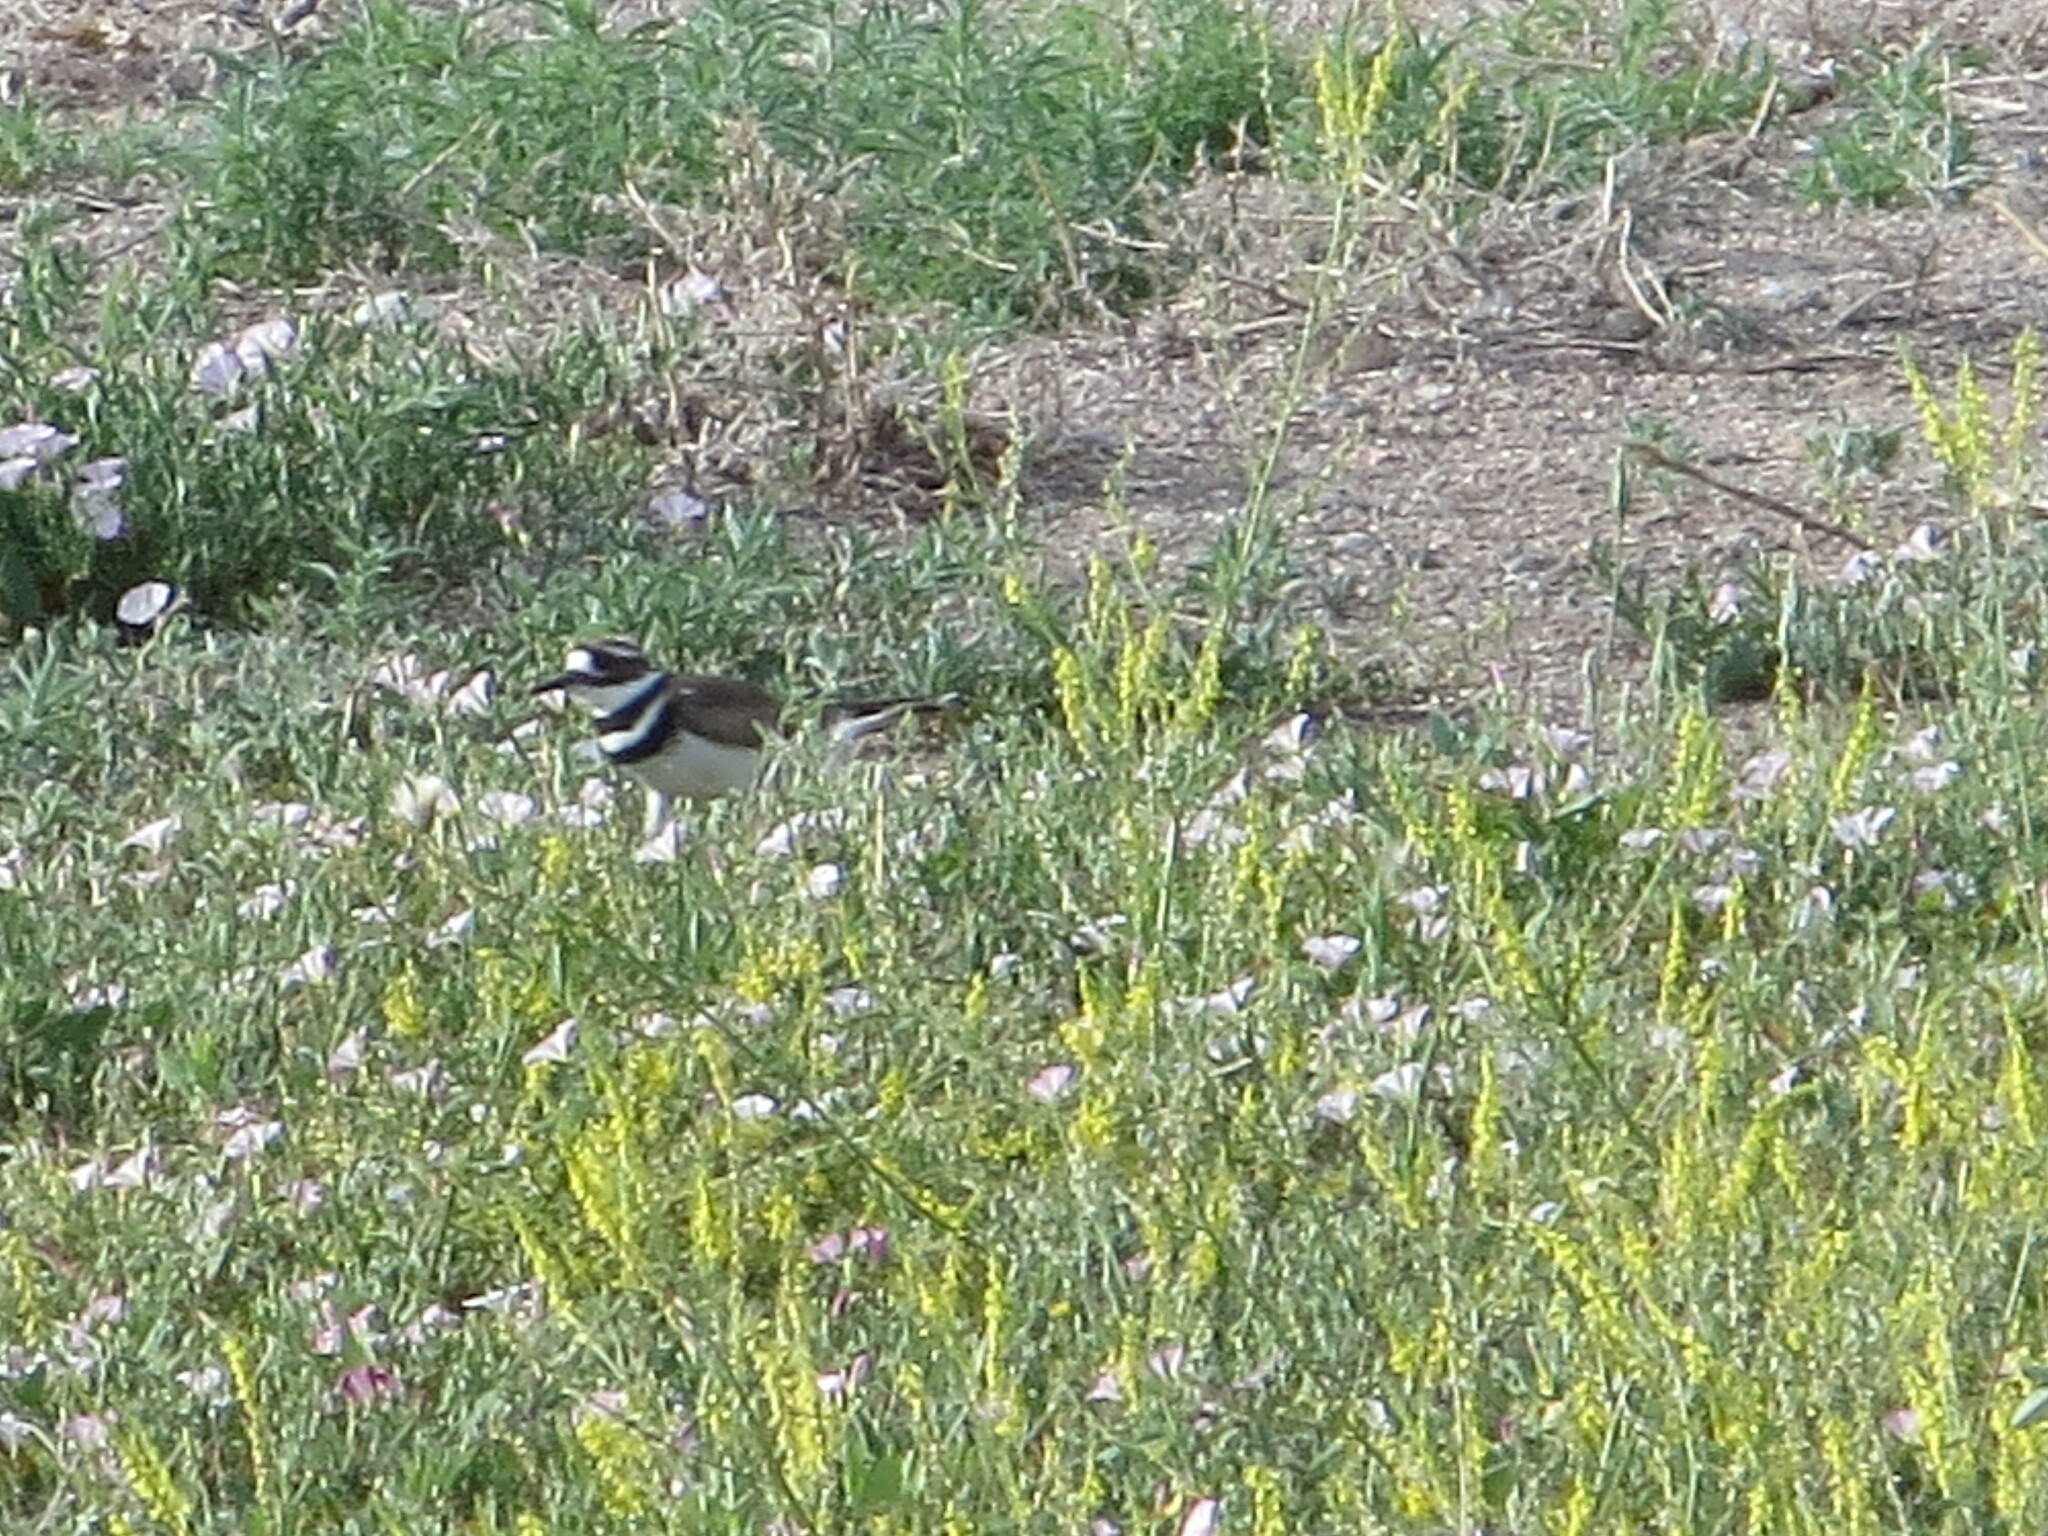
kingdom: Animalia
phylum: Chordata
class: Aves
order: Charadriiformes
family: Charadriidae
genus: Charadrius
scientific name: Charadrius vociferus
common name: Killdeer
